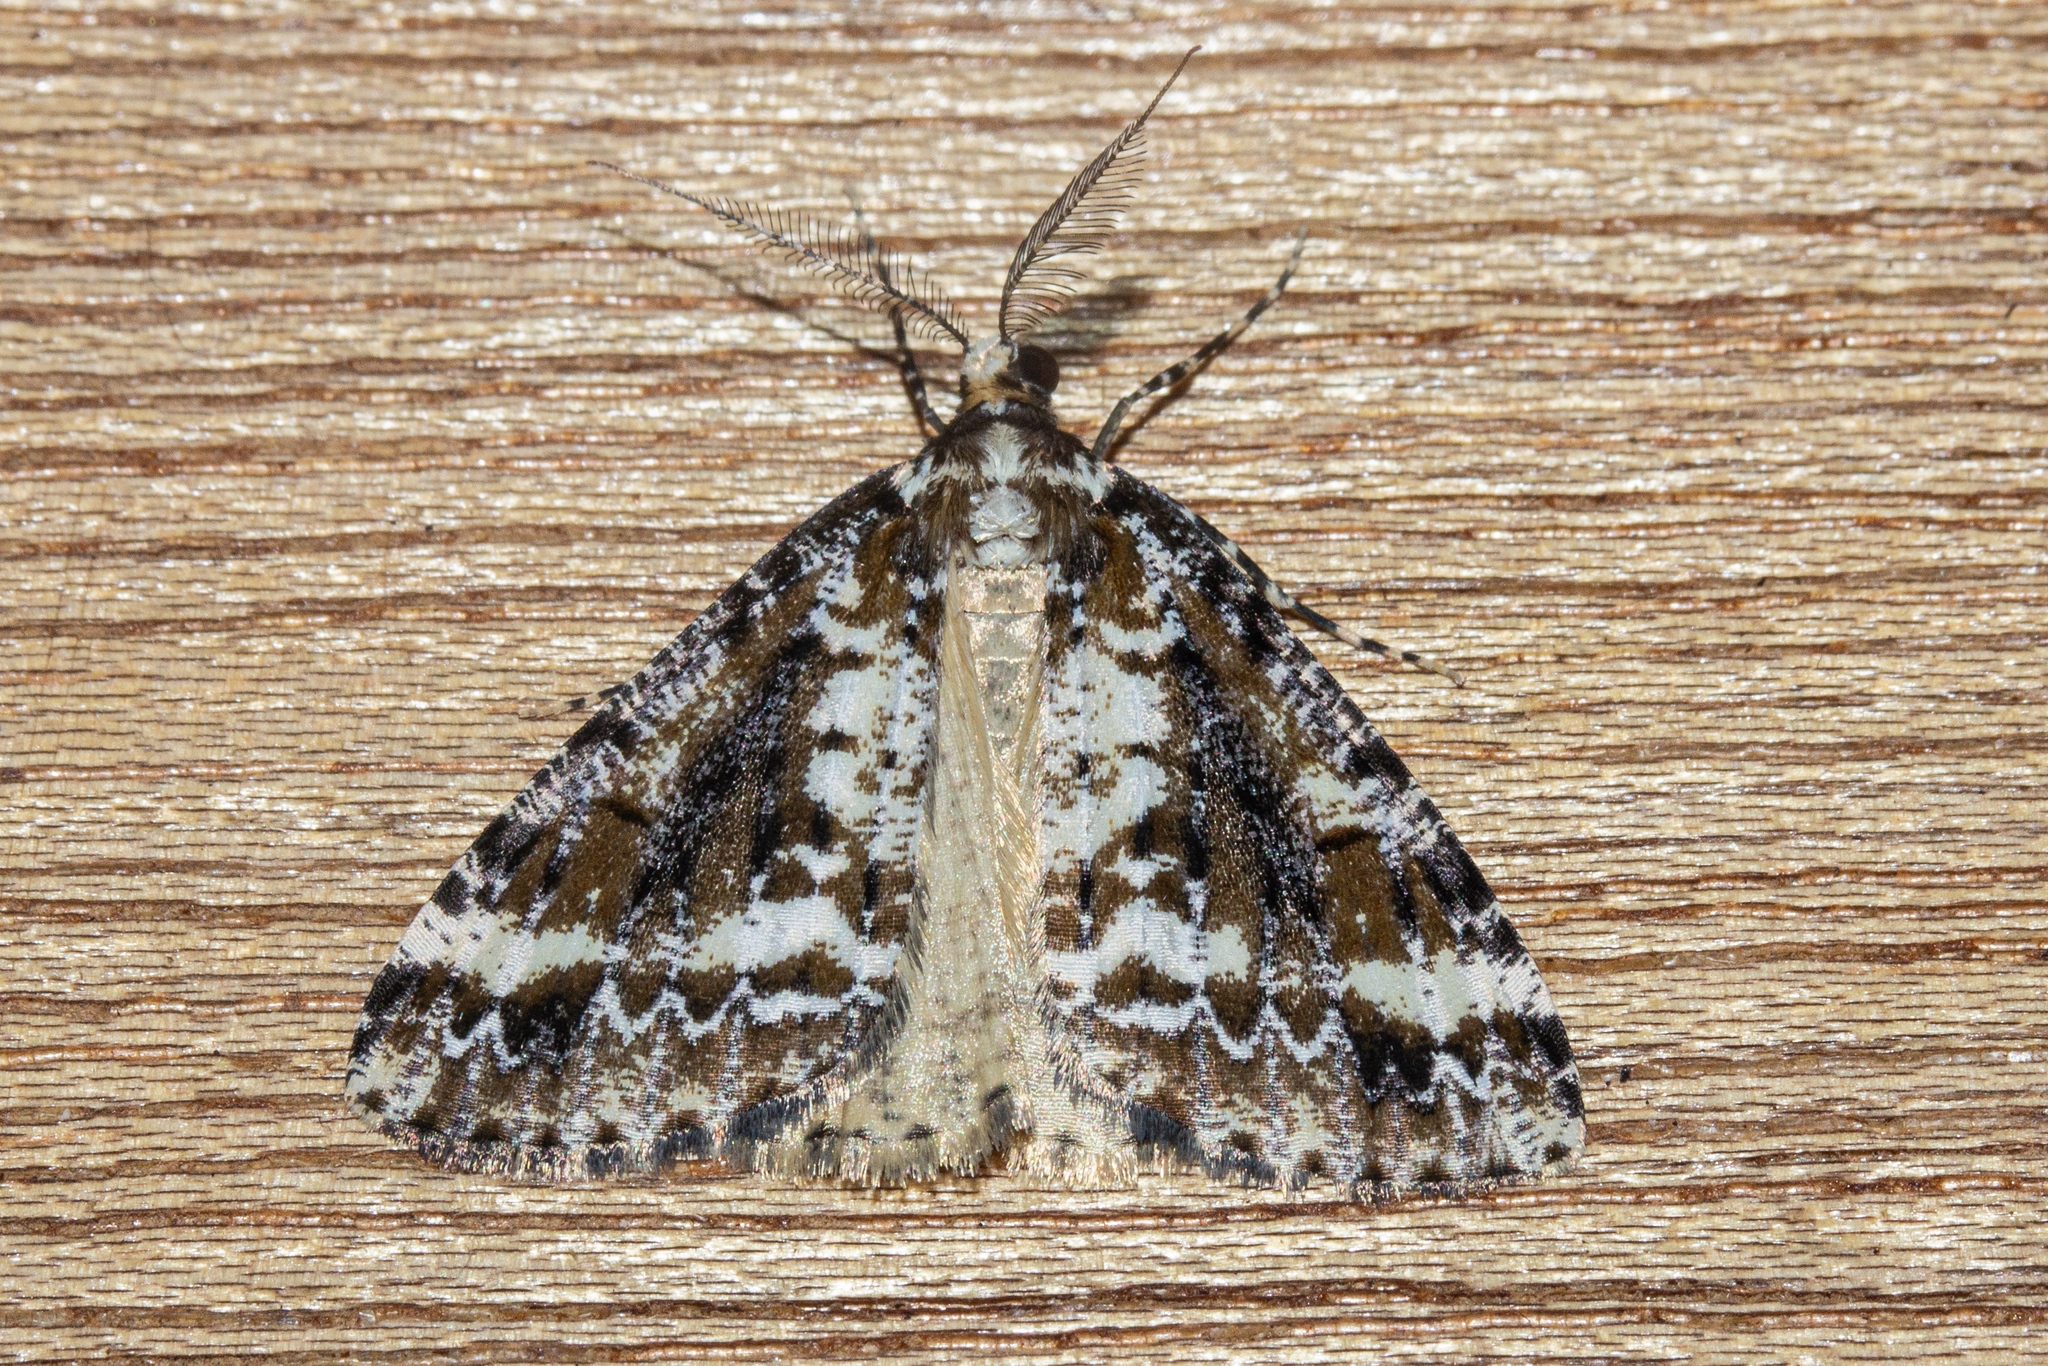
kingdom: Animalia
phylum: Arthropoda
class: Insecta
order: Lepidoptera
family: Geometridae
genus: Pseudocoremia
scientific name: Pseudocoremia leucelaea
